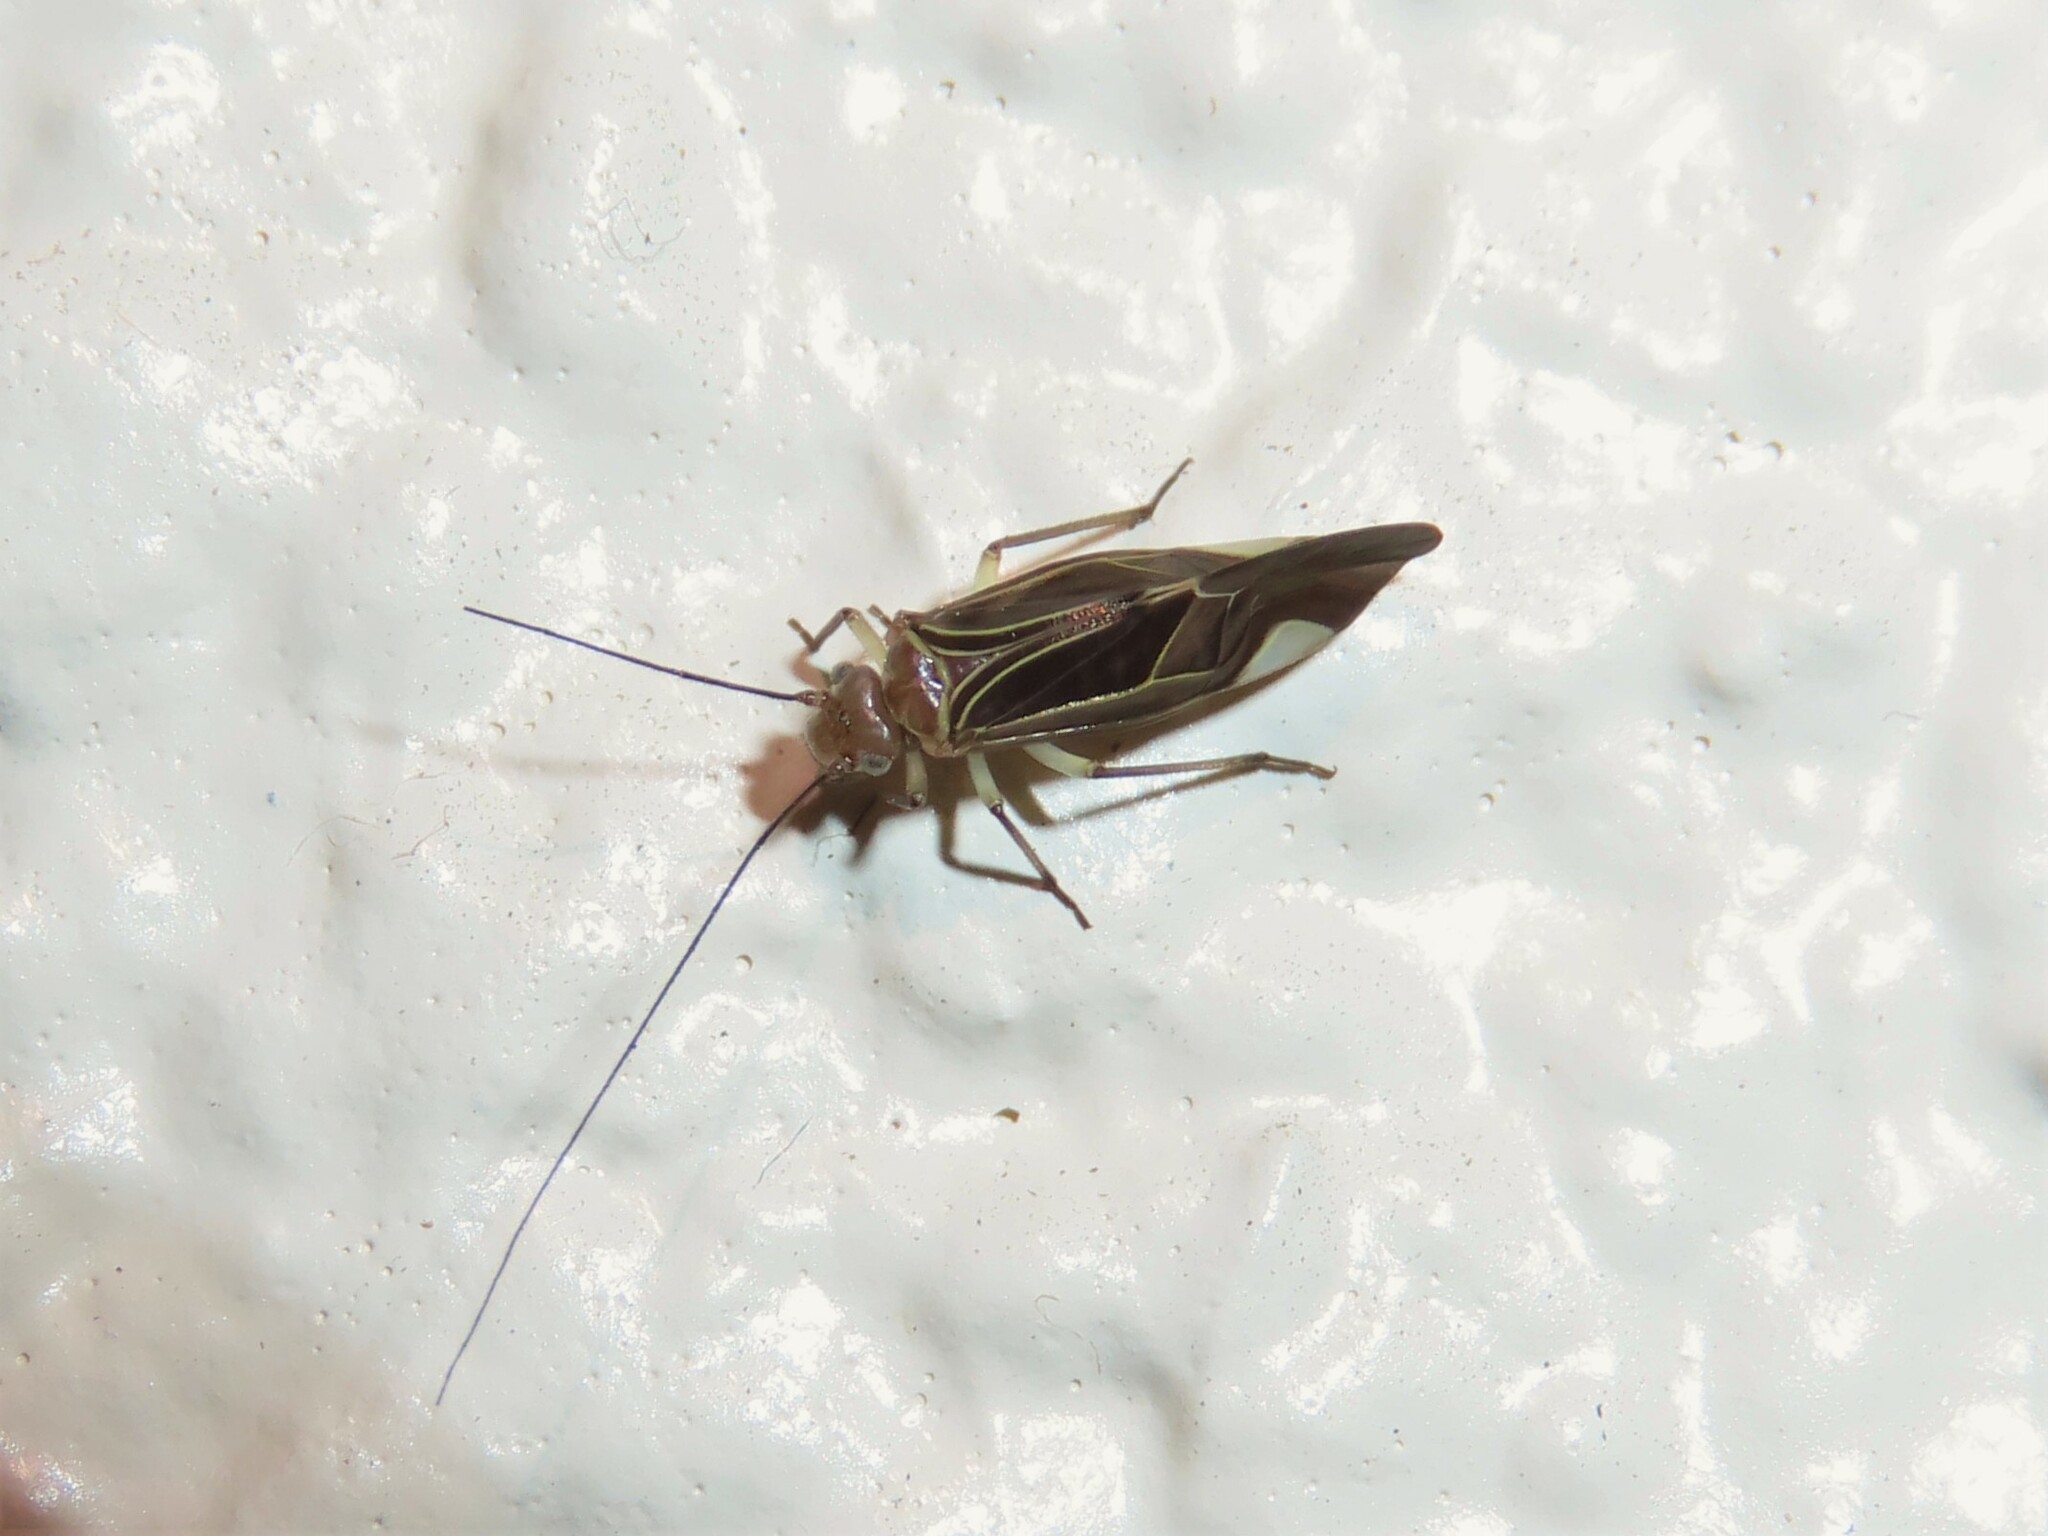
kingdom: Animalia
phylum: Arthropoda
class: Insecta
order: Psocodea
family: Psocidae
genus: Cerastipsocus
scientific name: Cerastipsocus venosus
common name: Tree cattle
